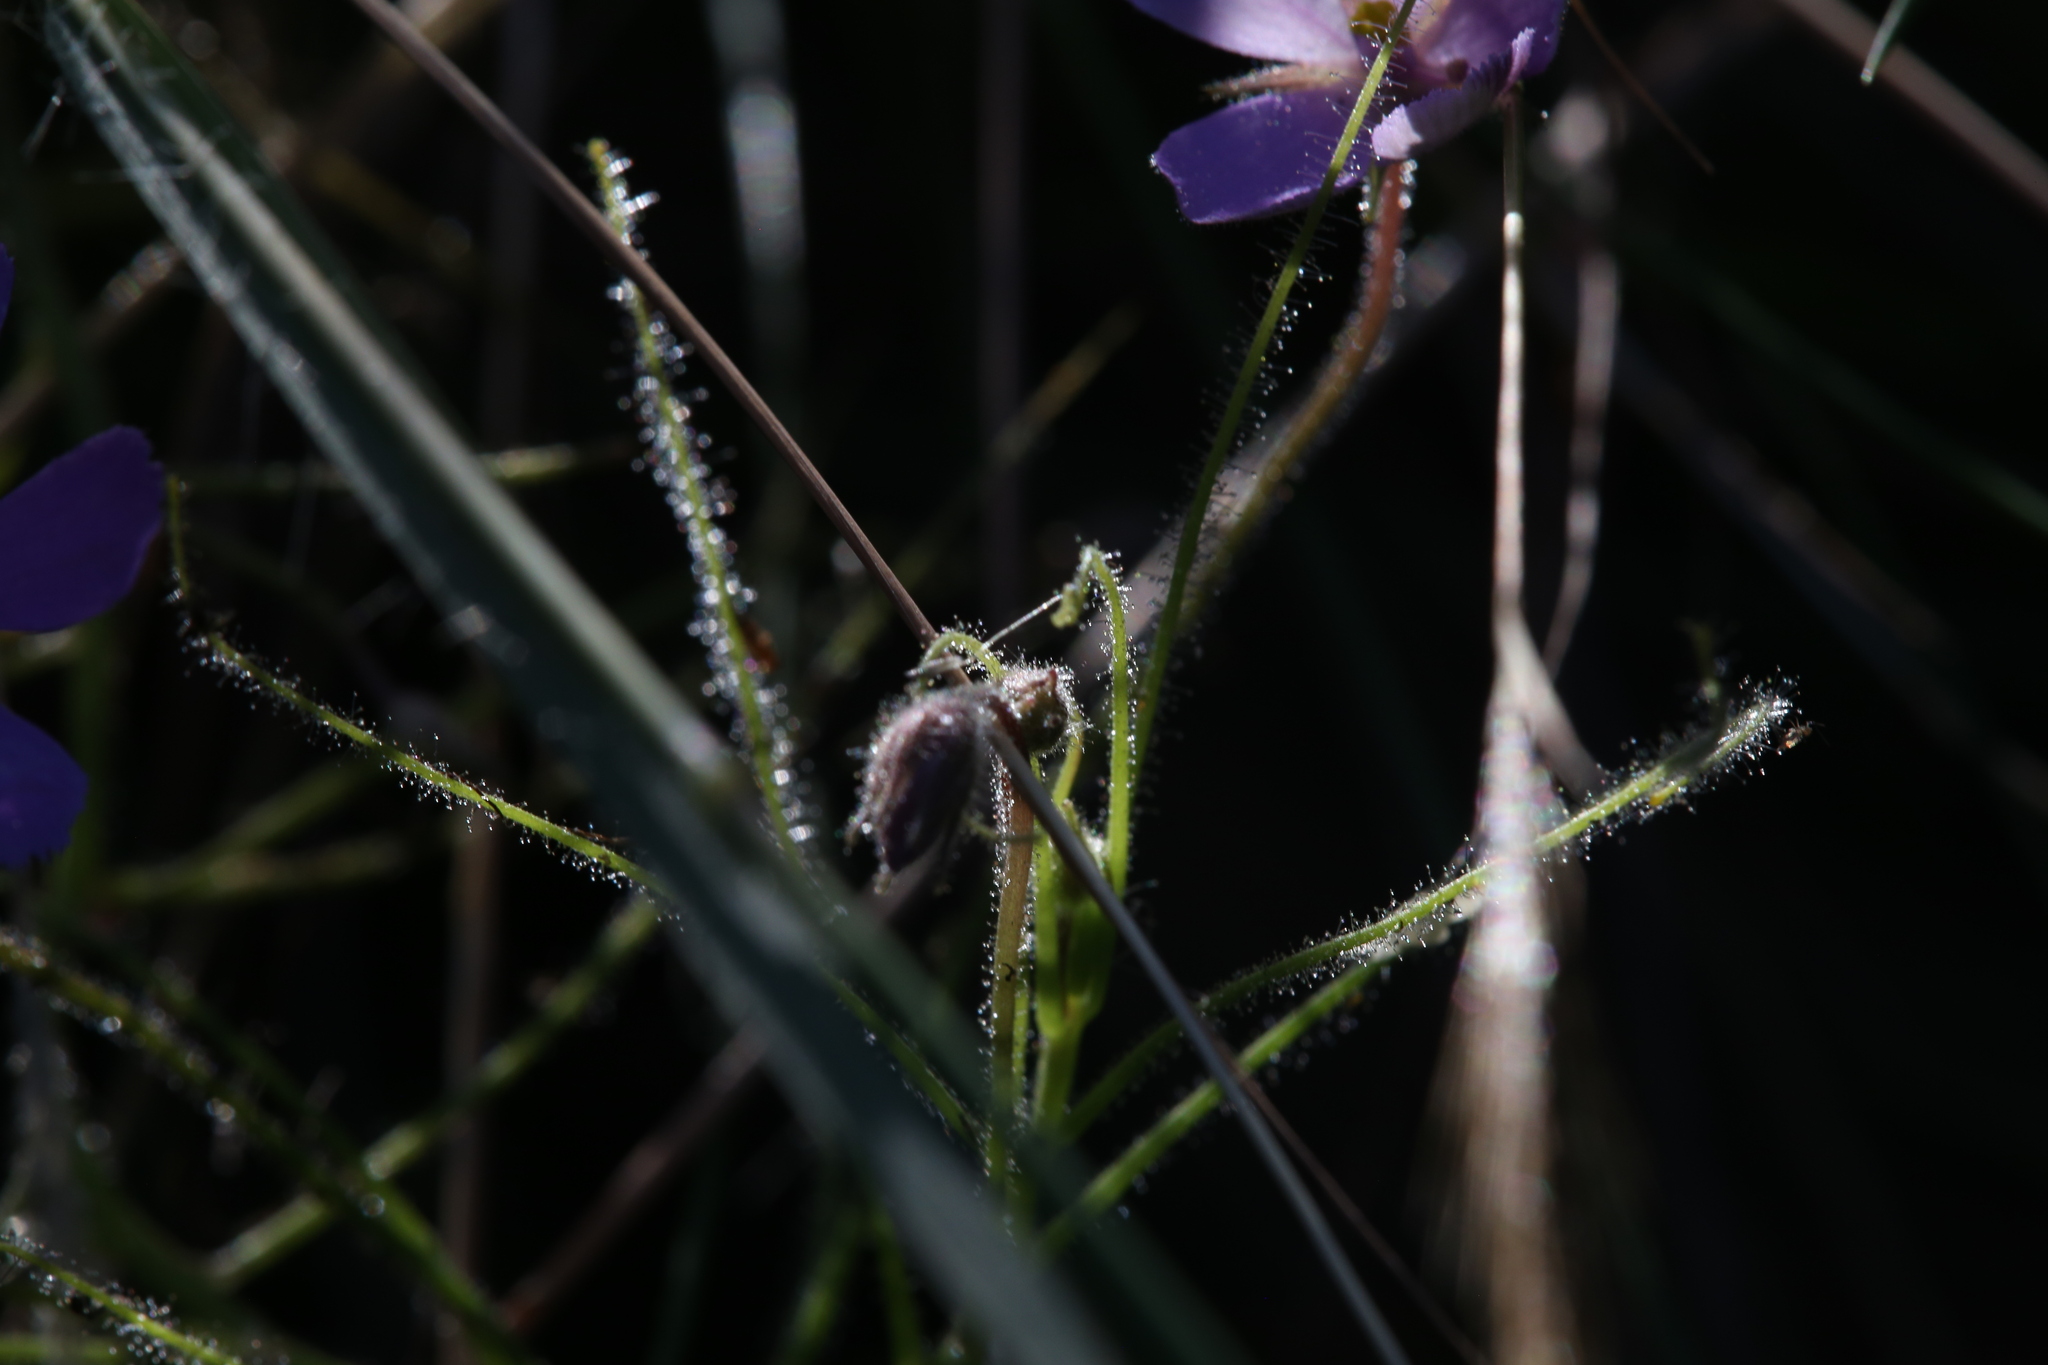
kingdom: Plantae
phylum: Tracheophyta
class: Magnoliopsida
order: Lamiales
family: Byblidaceae
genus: Byblis
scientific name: Byblis filifolia
